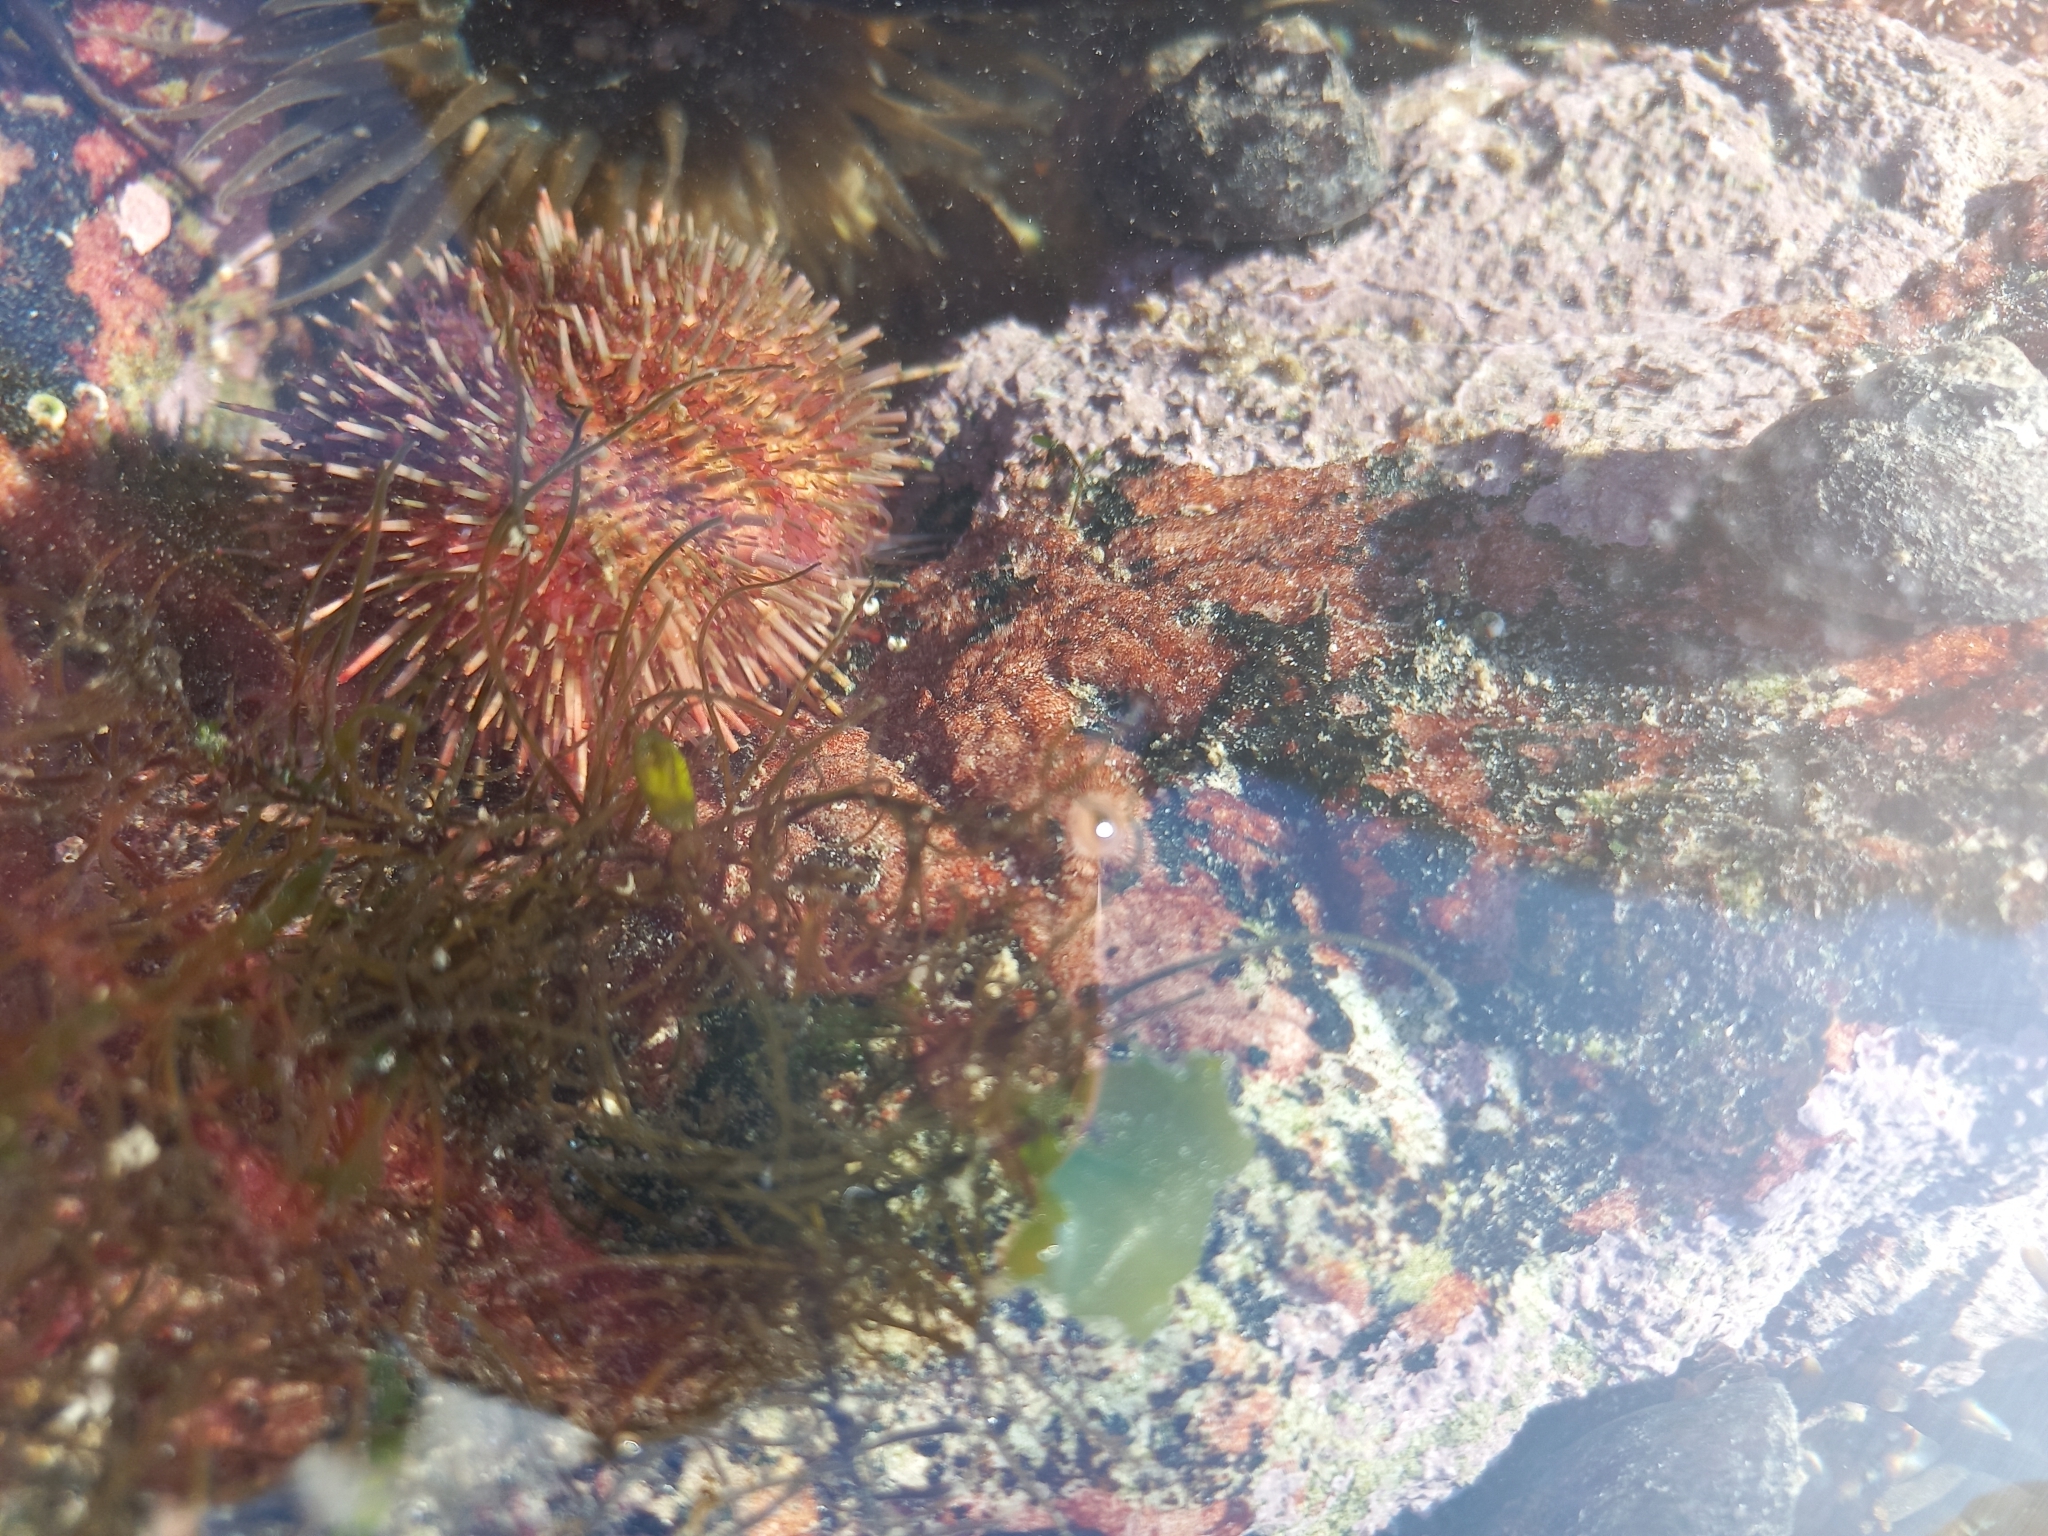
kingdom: Animalia
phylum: Echinodermata
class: Echinoidea
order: Camarodonta
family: Parechinidae
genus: Parechinus
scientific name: Parechinus angulosus
